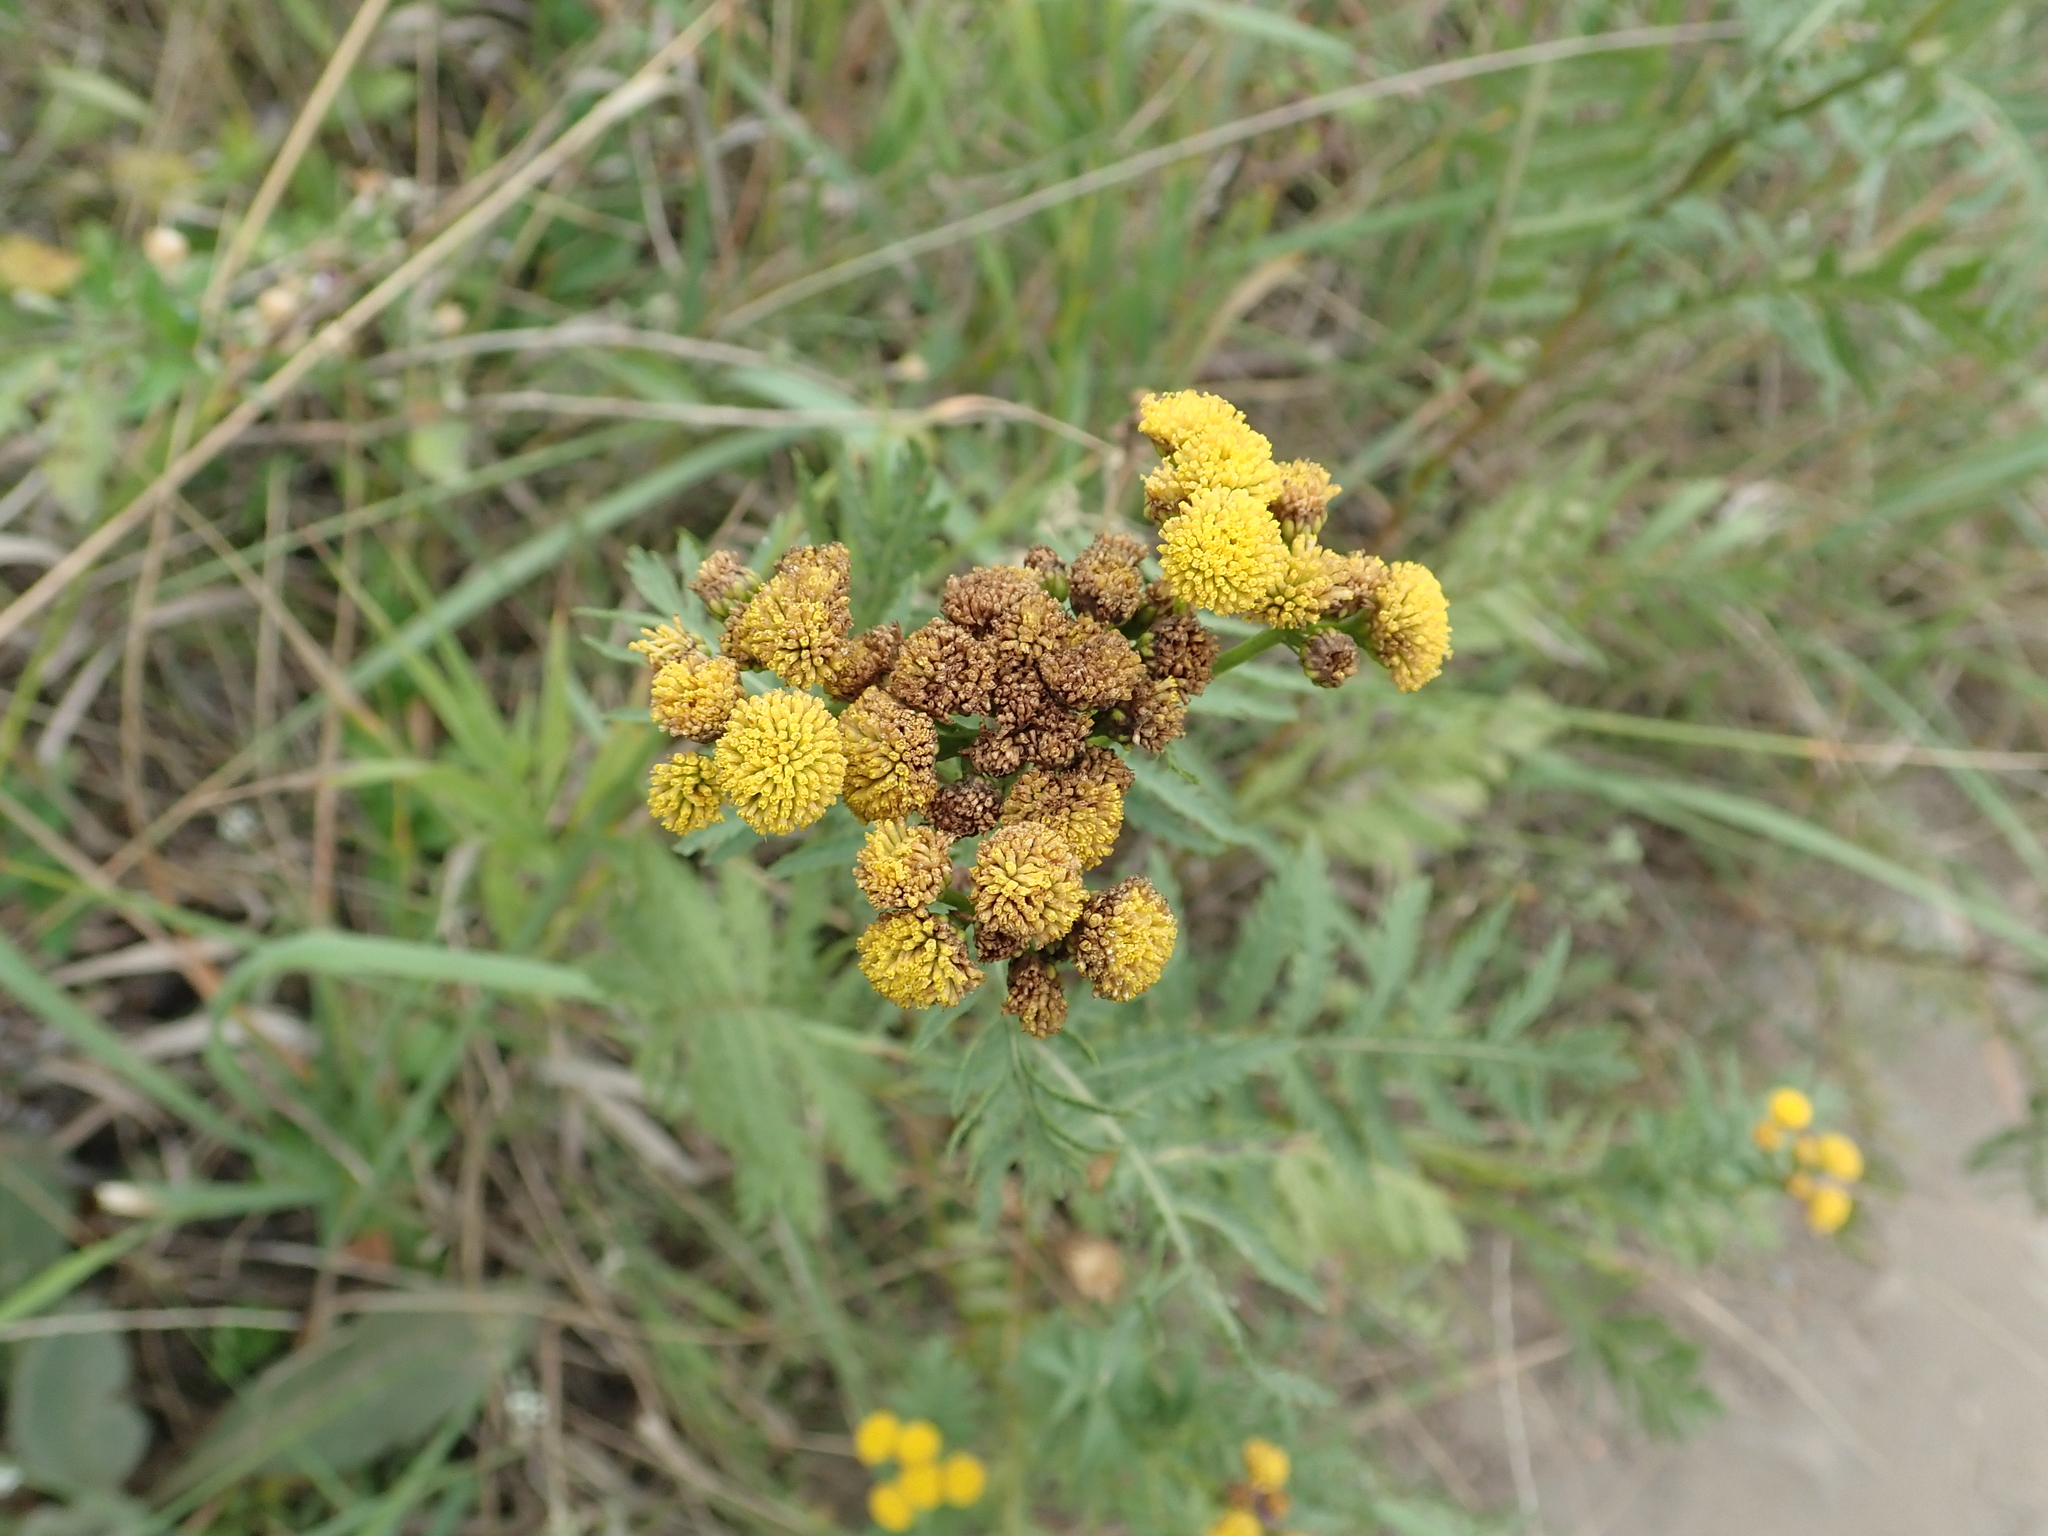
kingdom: Plantae
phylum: Tracheophyta
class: Magnoliopsida
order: Asterales
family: Asteraceae
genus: Tanacetum
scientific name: Tanacetum vulgare
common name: Common tansy
